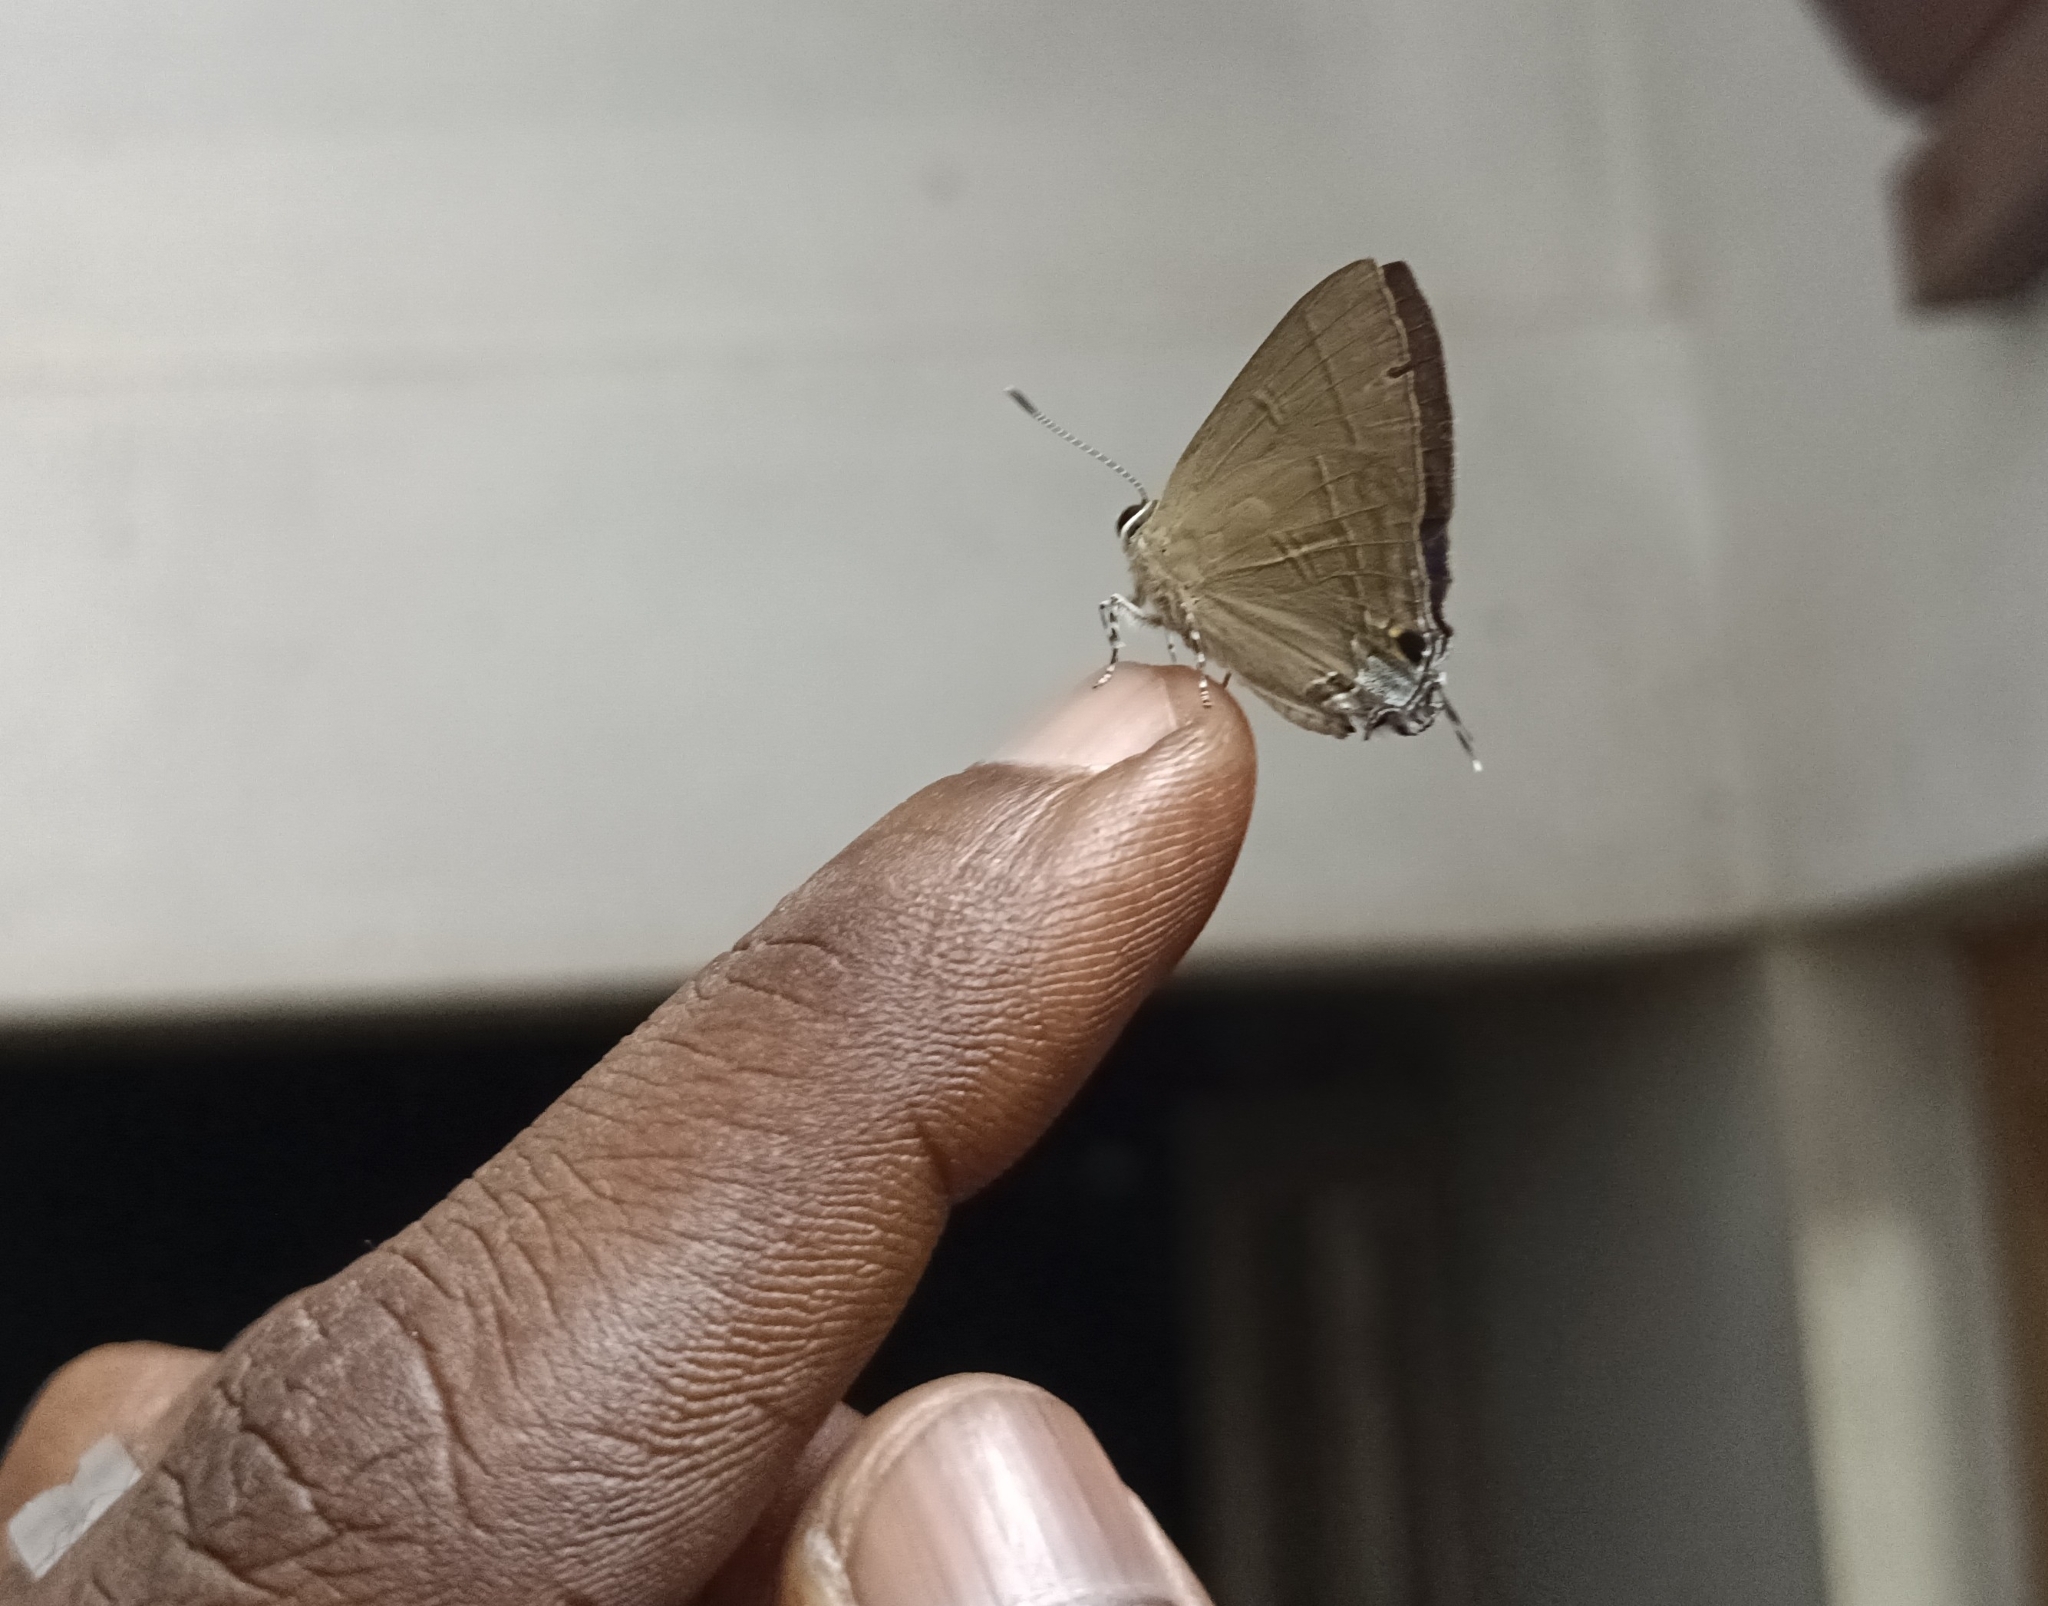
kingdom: Animalia
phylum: Arthropoda
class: Insecta
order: Lepidoptera
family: Lycaenidae
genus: Rapala
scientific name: Rapala manea
